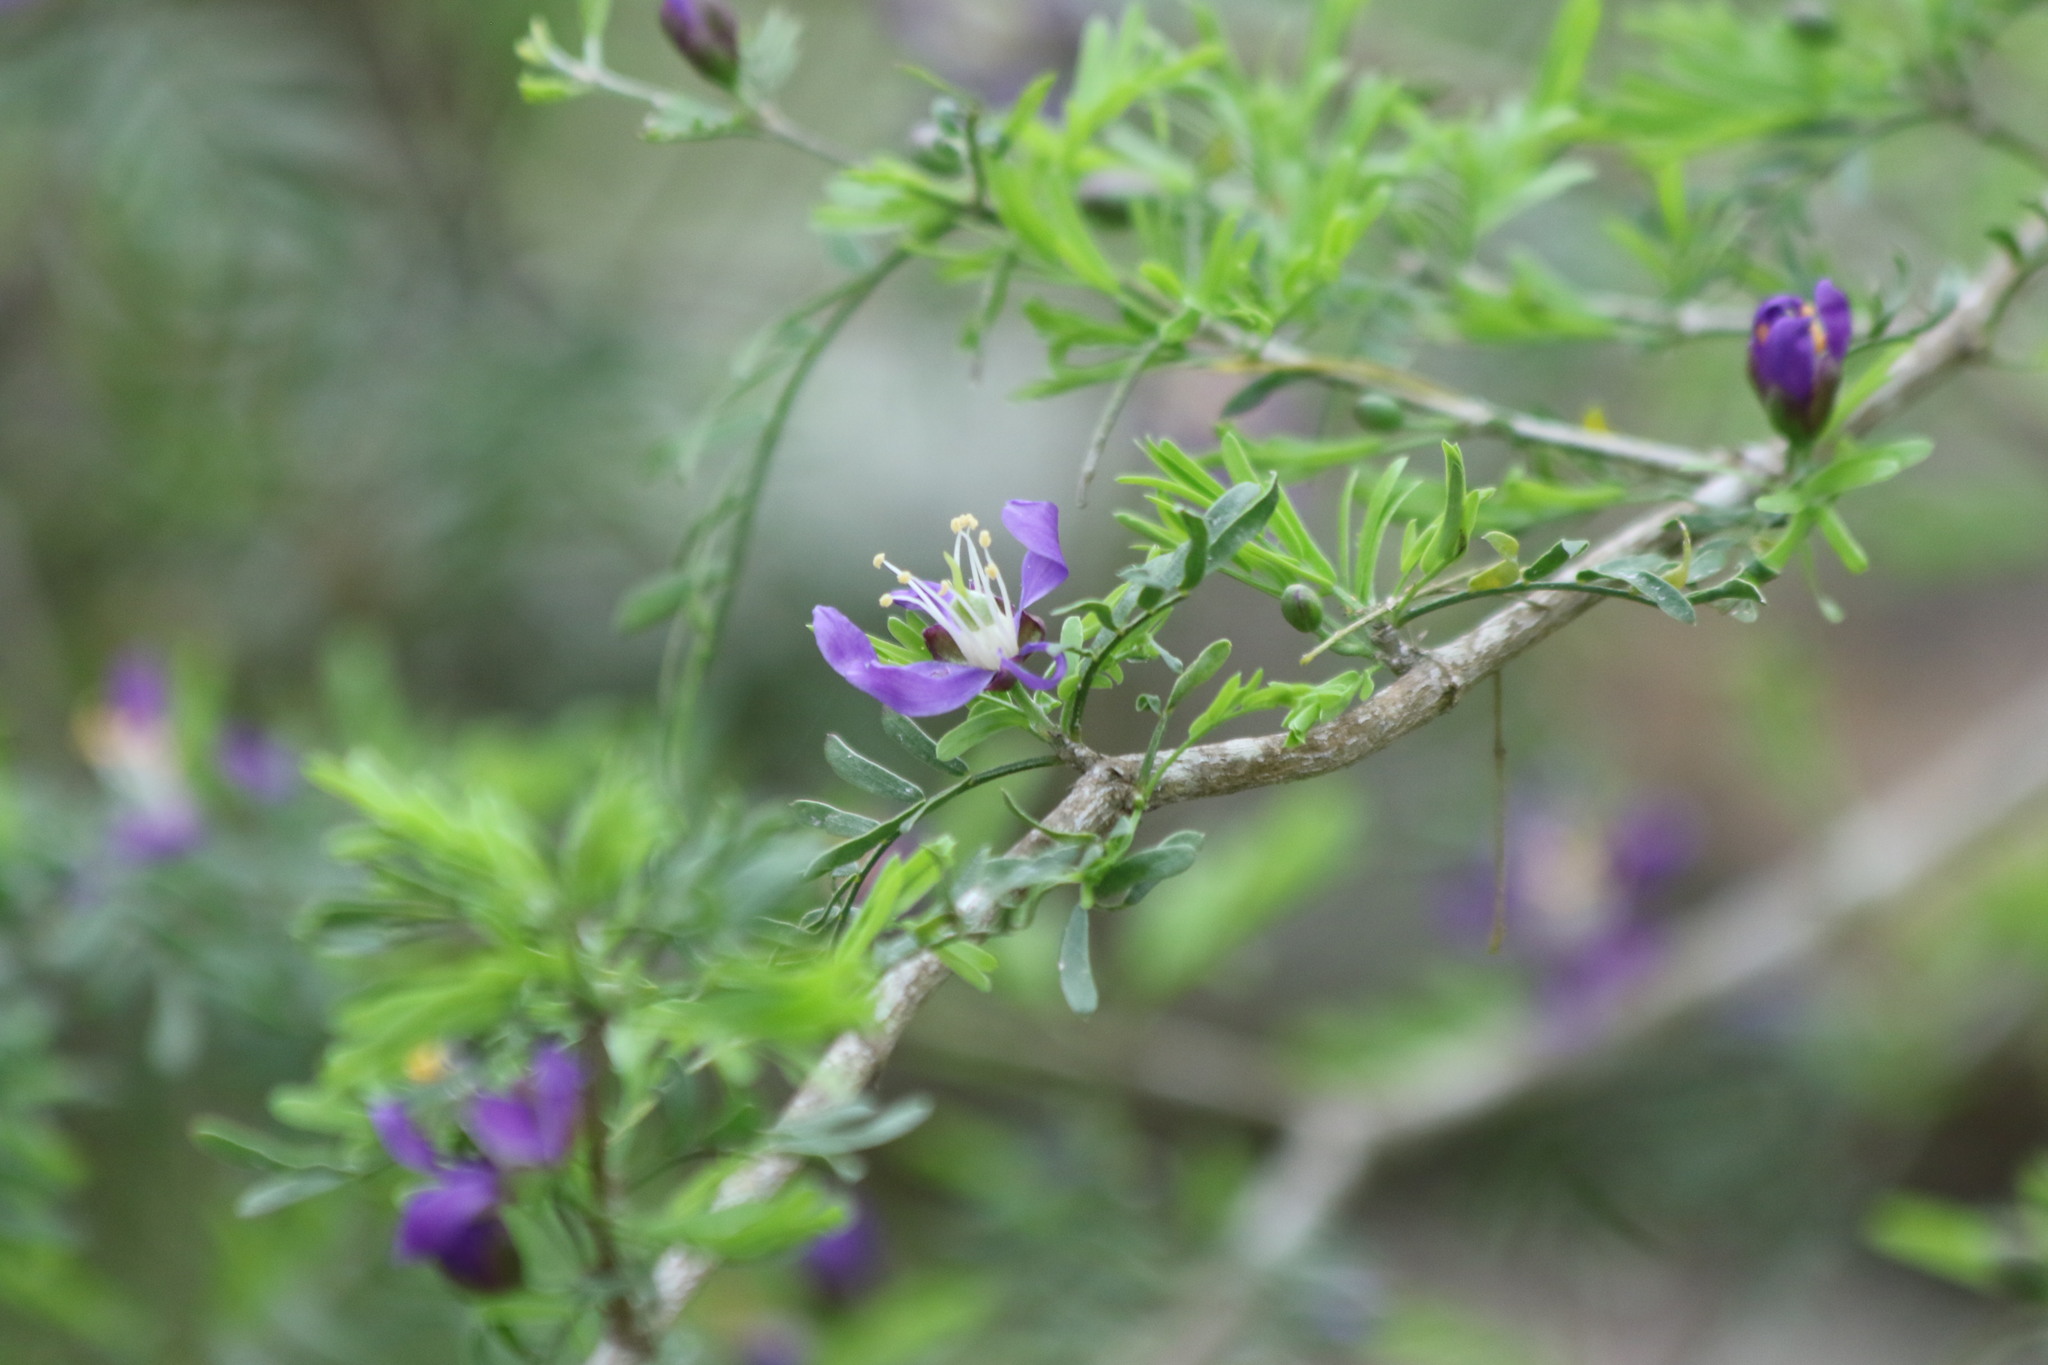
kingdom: Plantae
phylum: Tracheophyta
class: Magnoliopsida
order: Zygophyllales
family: Zygophyllaceae
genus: Porlieria
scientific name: Porlieria angustifolia
